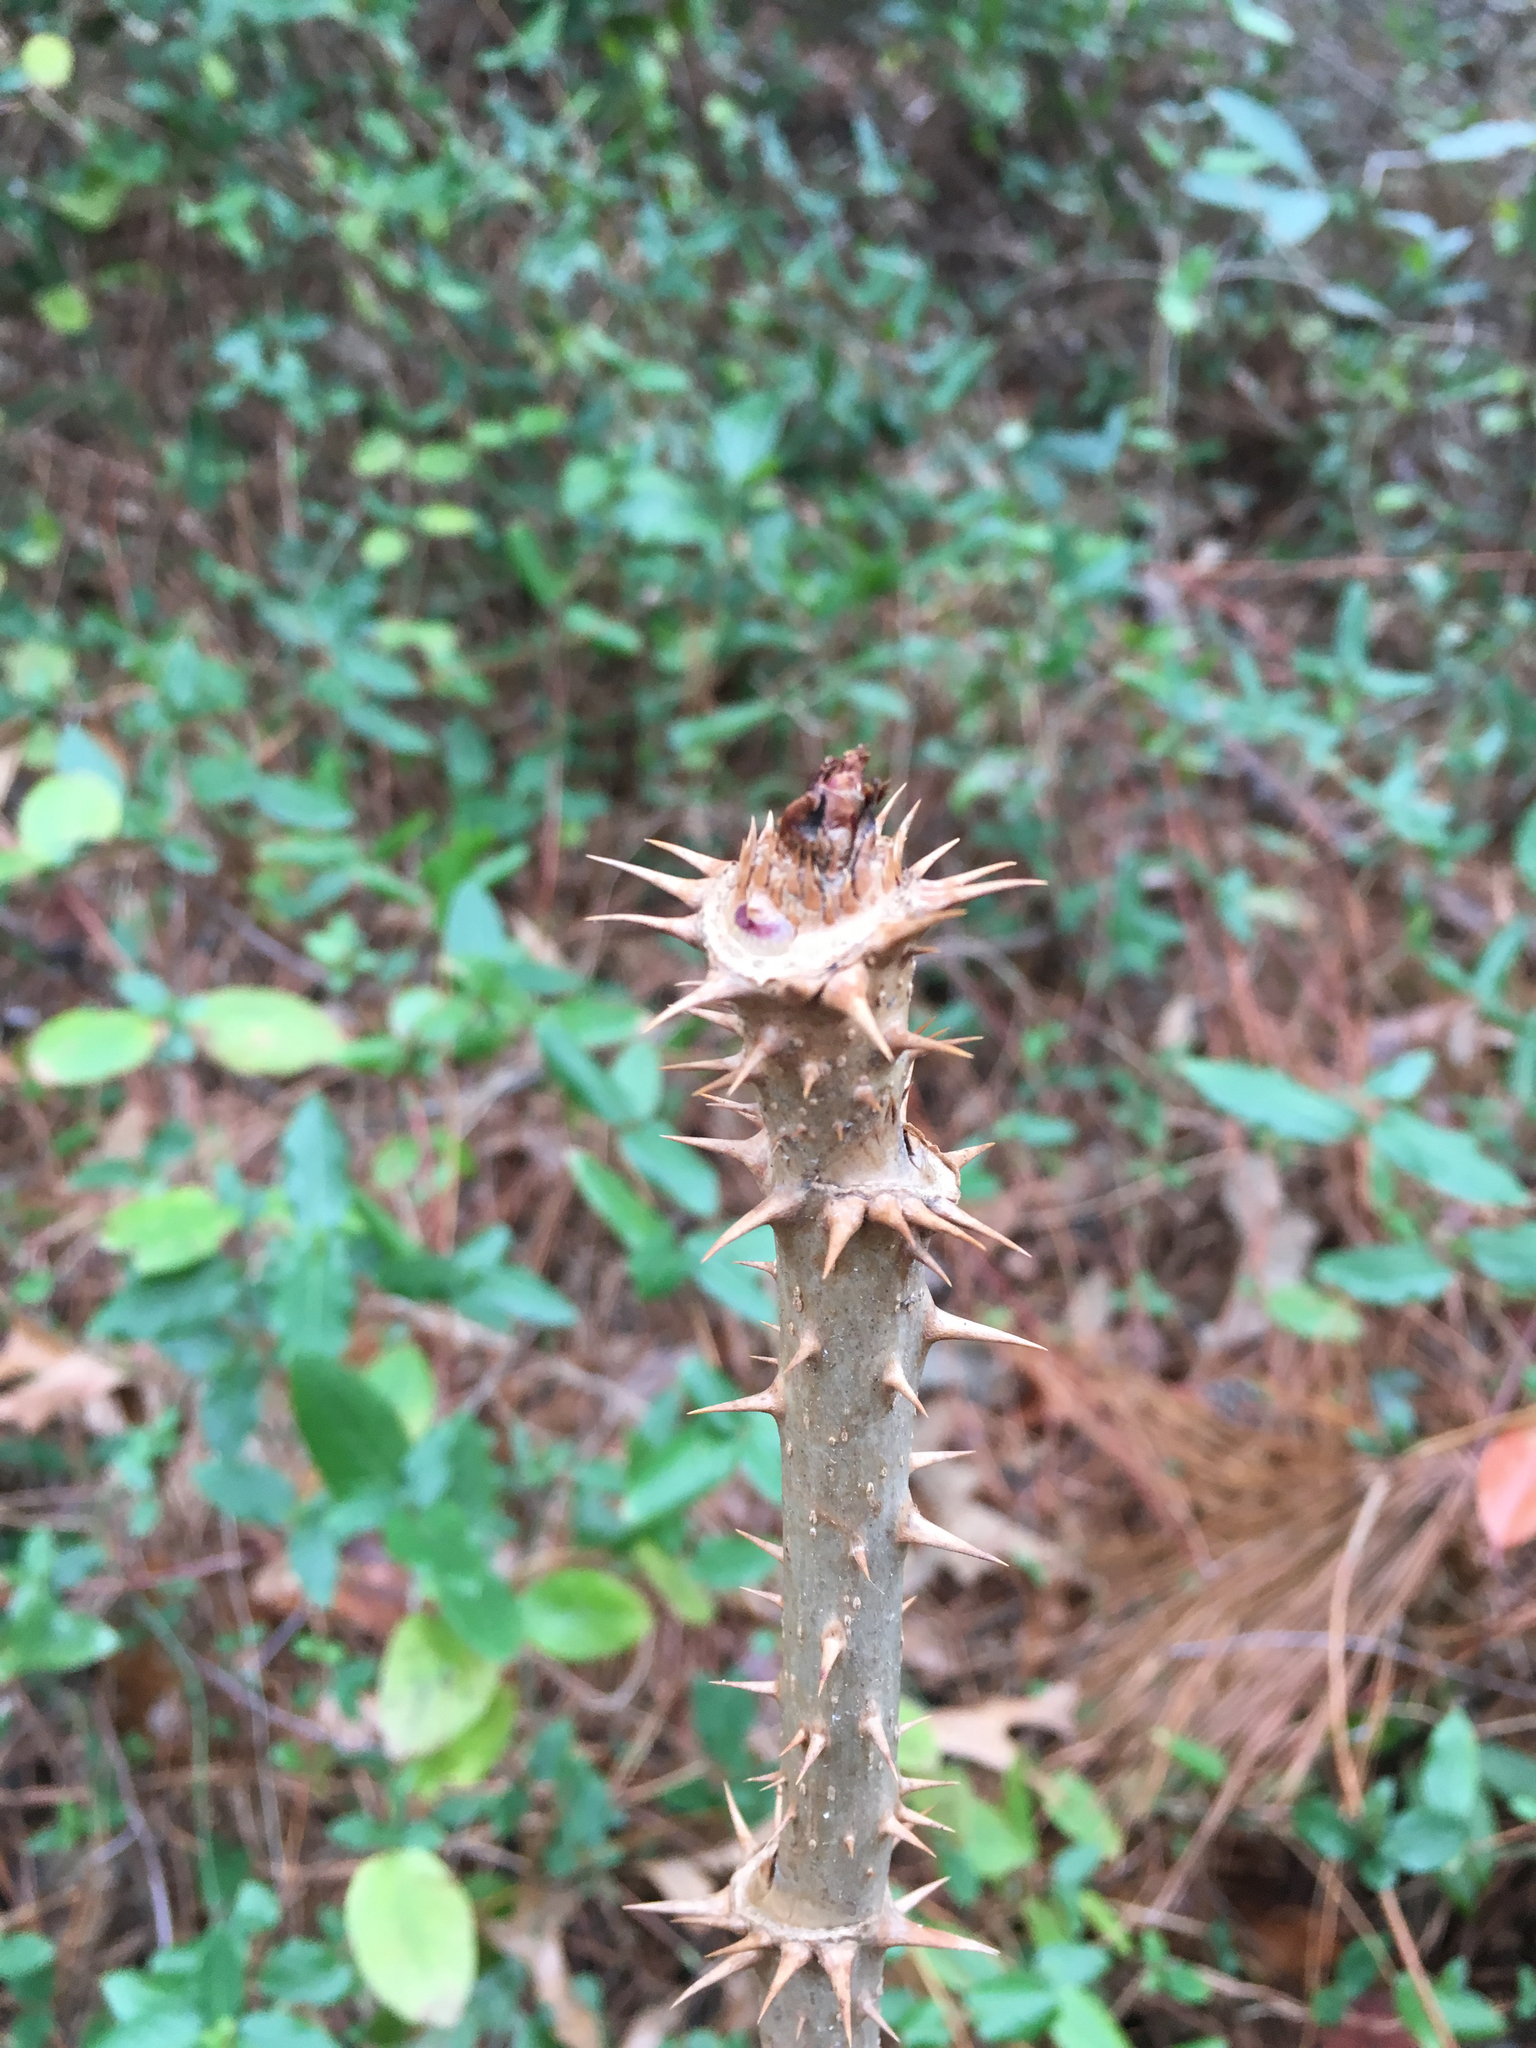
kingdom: Plantae
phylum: Tracheophyta
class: Magnoliopsida
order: Apiales
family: Araliaceae
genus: Aralia
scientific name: Aralia spinosa
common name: Hercules'-club
